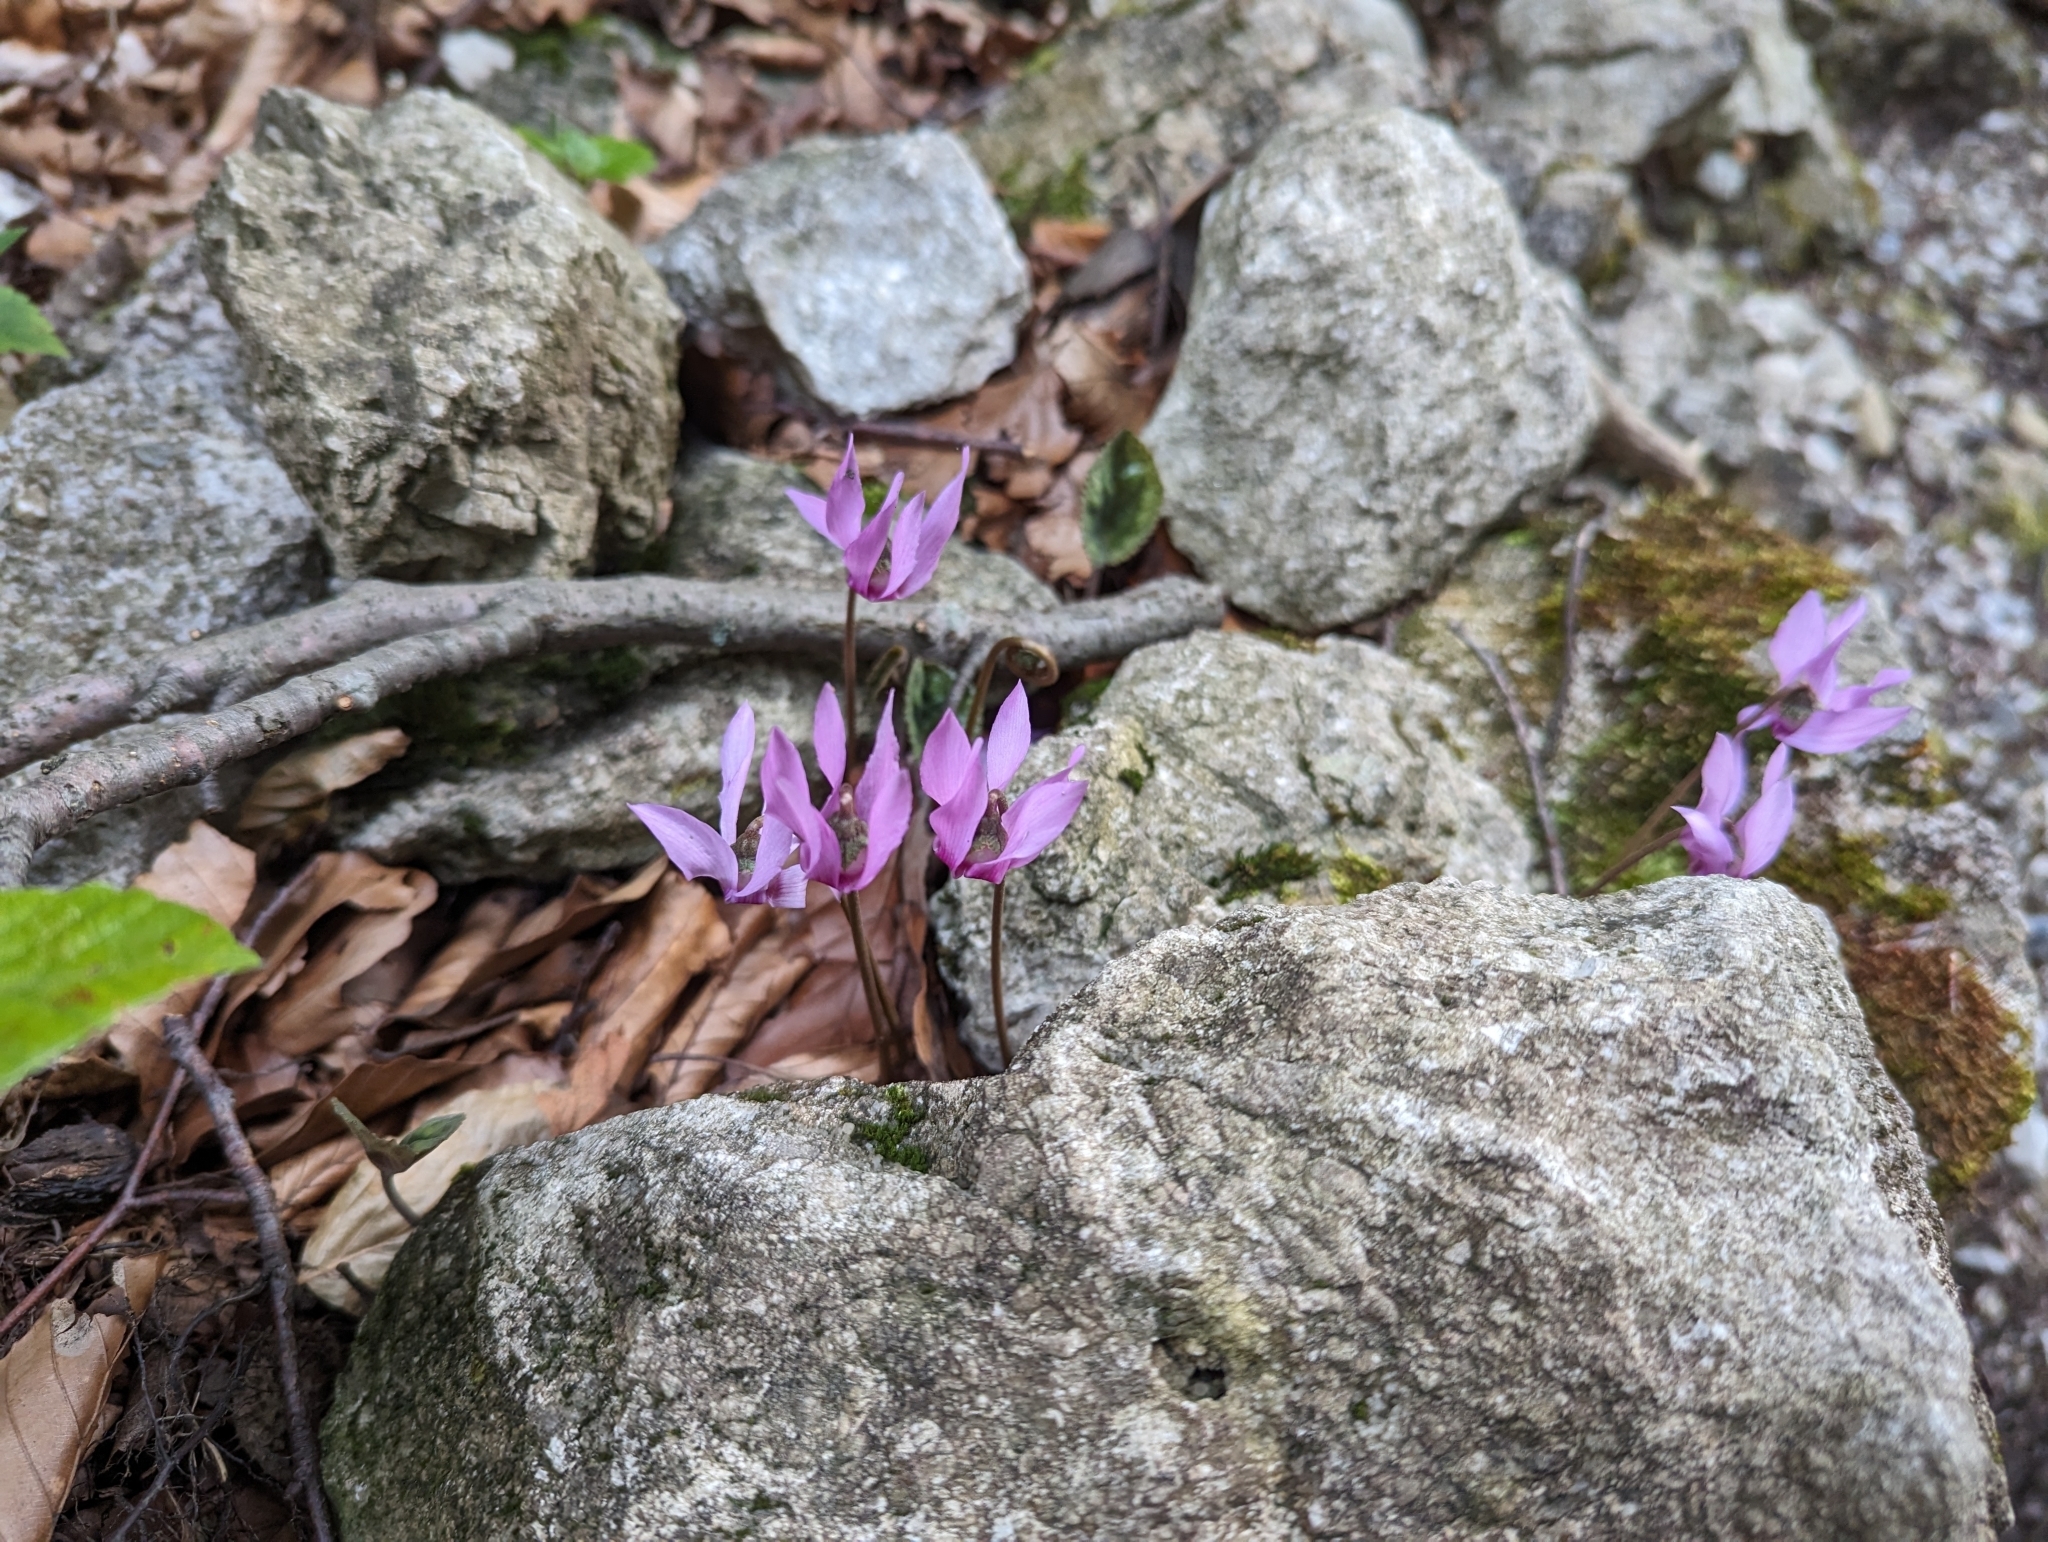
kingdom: Plantae
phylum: Tracheophyta
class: Magnoliopsida
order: Ericales
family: Primulaceae
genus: Cyclamen
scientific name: Cyclamen purpurascens
